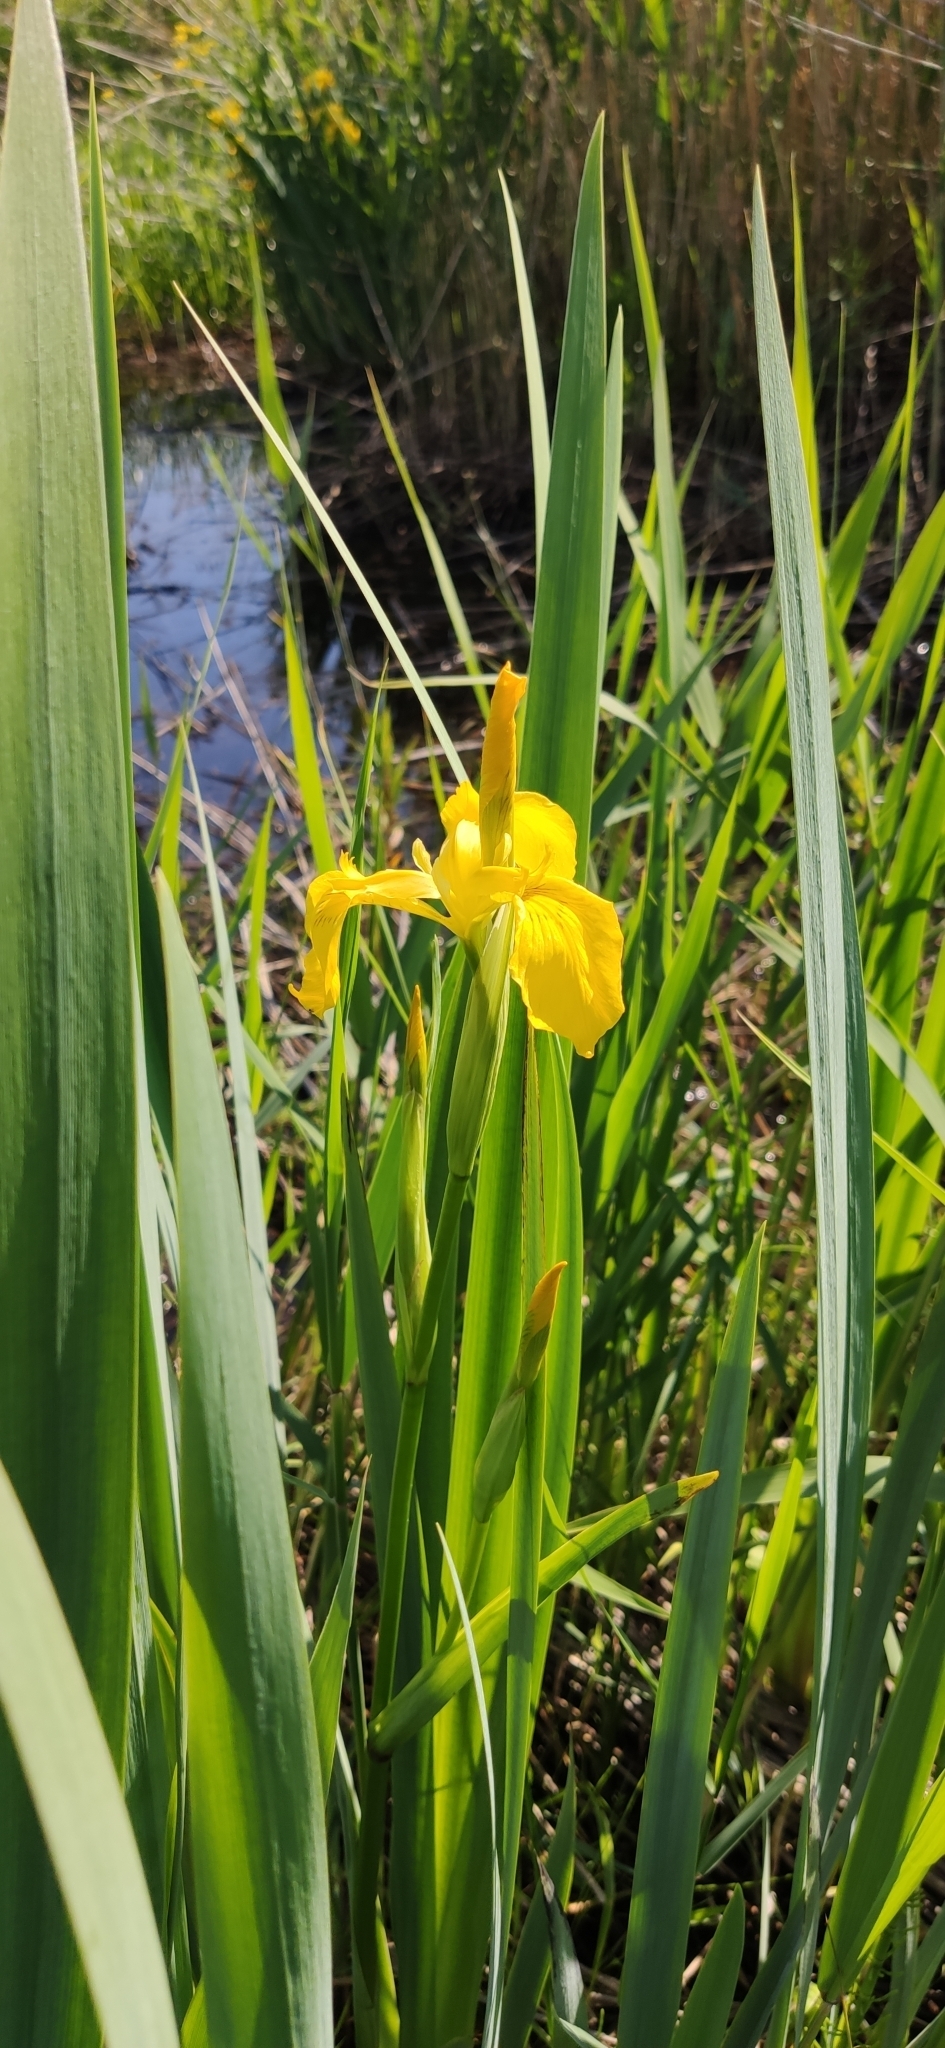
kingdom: Plantae
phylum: Tracheophyta
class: Liliopsida
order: Asparagales
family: Iridaceae
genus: Iris
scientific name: Iris pseudacorus
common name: Yellow flag
